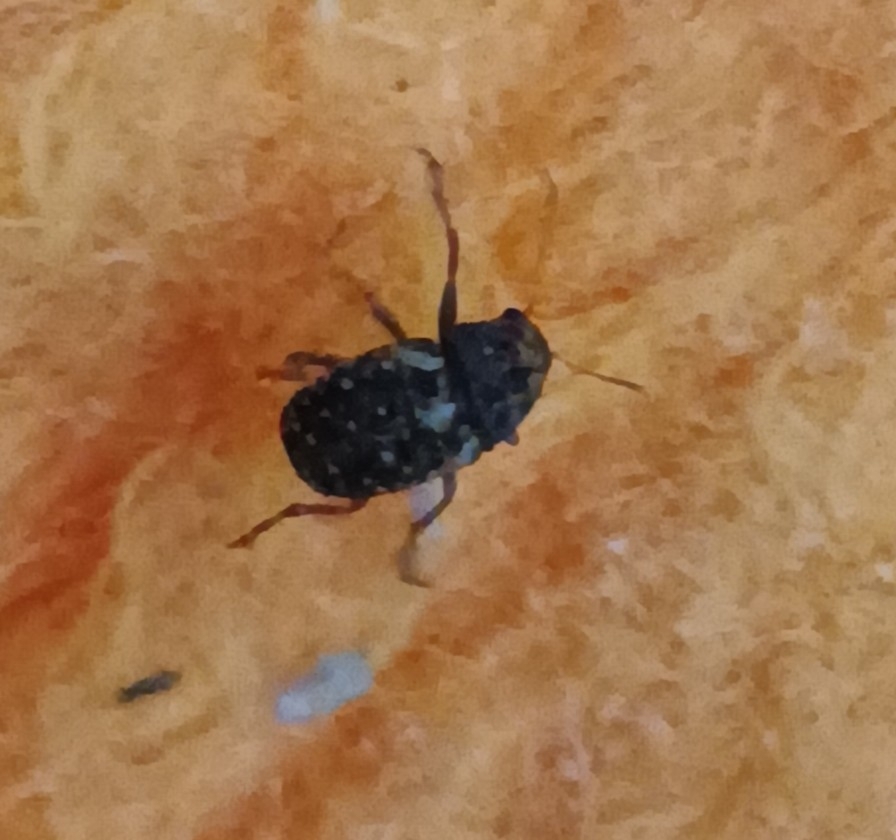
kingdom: Animalia
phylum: Arthropoda
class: Insecta
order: Coleoptera
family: Anthribidae
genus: Araecerus
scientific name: Araecerus fasciculatus
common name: Coffee bean weevil
